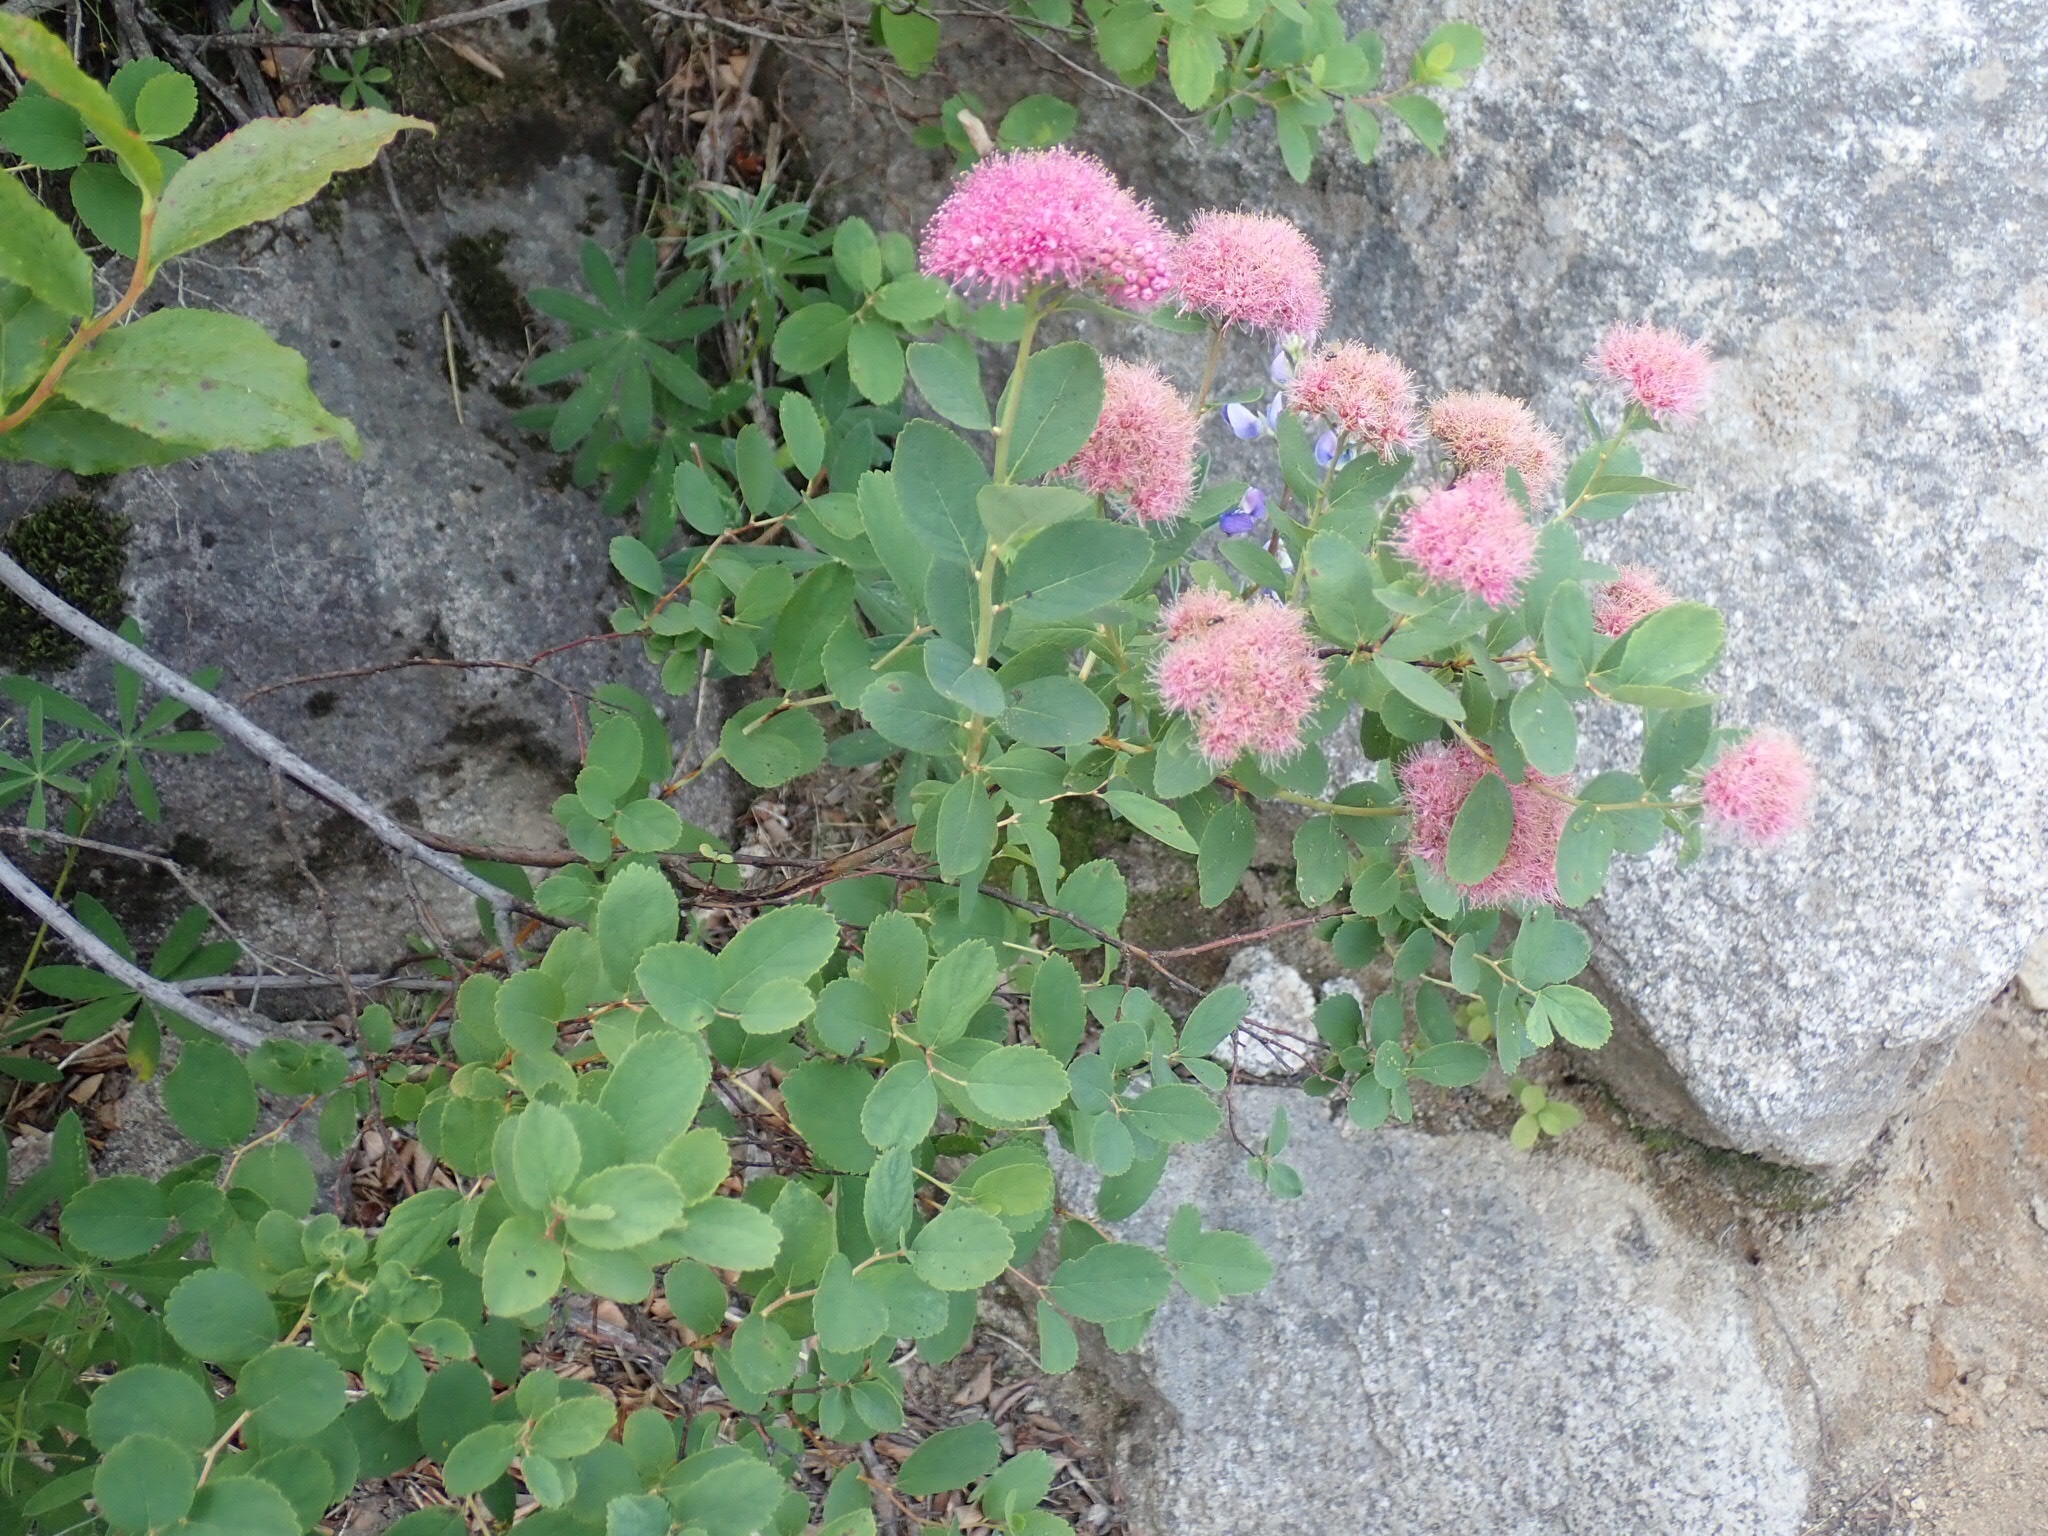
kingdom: Plantae
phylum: Tracheophyta
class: Magnoliopsida
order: Rosales
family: Rosaceae
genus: Spiraea
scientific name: Spiraea splendens
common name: Subalpine meadowsweet
